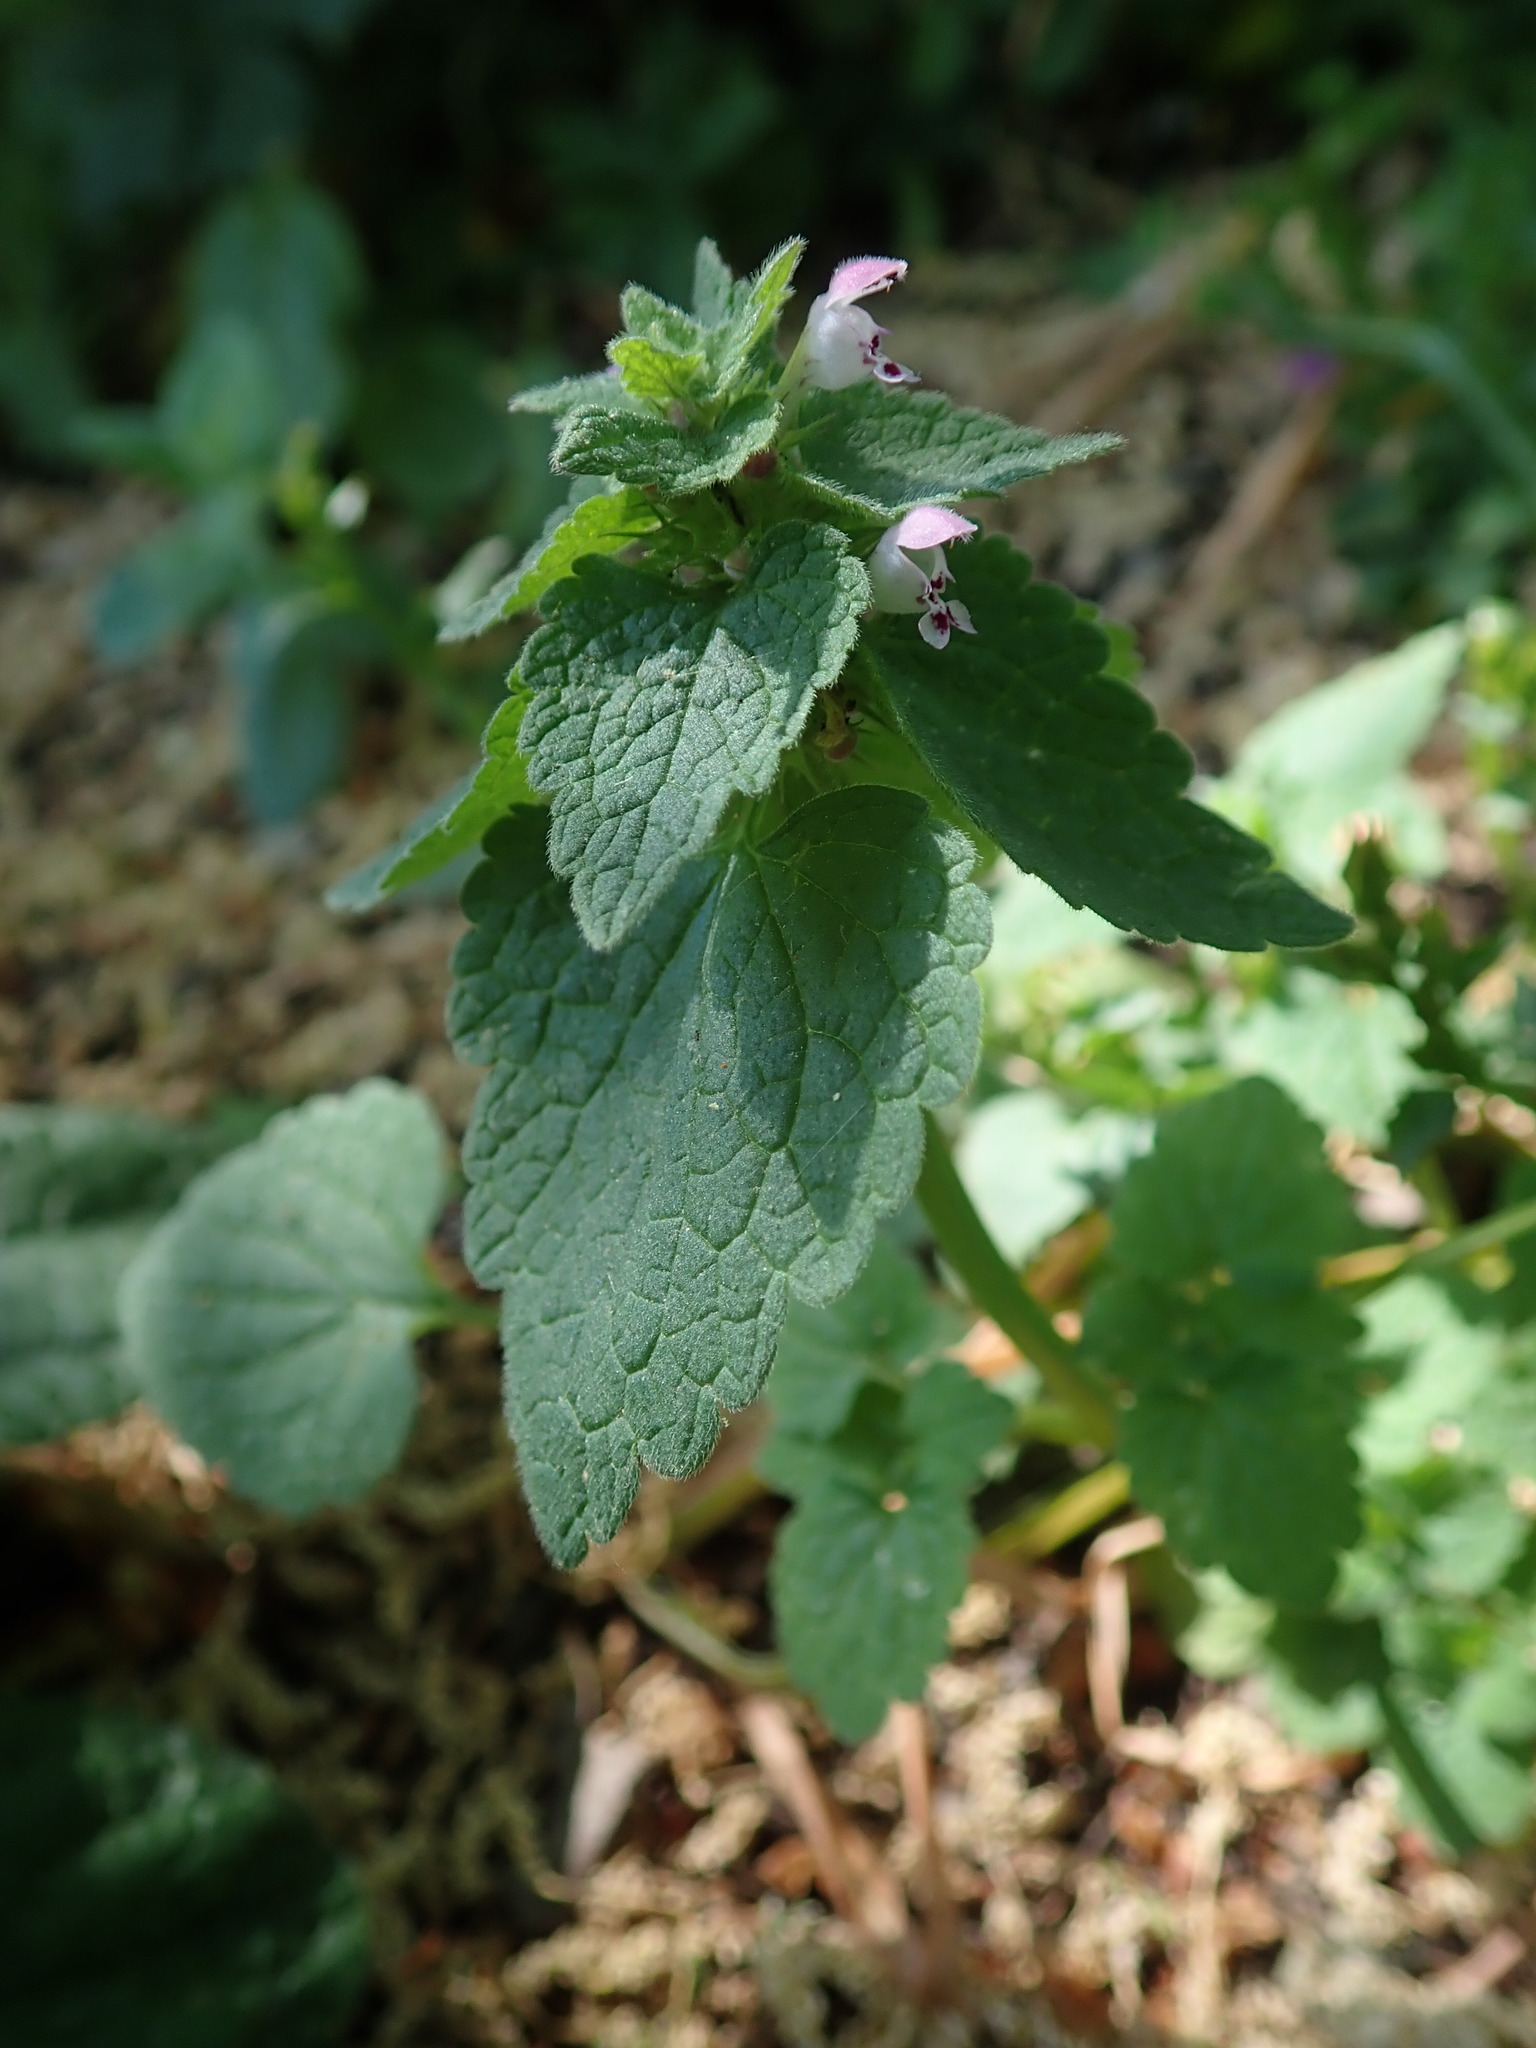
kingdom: Plantae
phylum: Tracheophyta
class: Magnoliopsida
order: Lamiales
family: Lamiaceae
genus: Lamium
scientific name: Lamium purpureum
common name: Red dead-nettle
